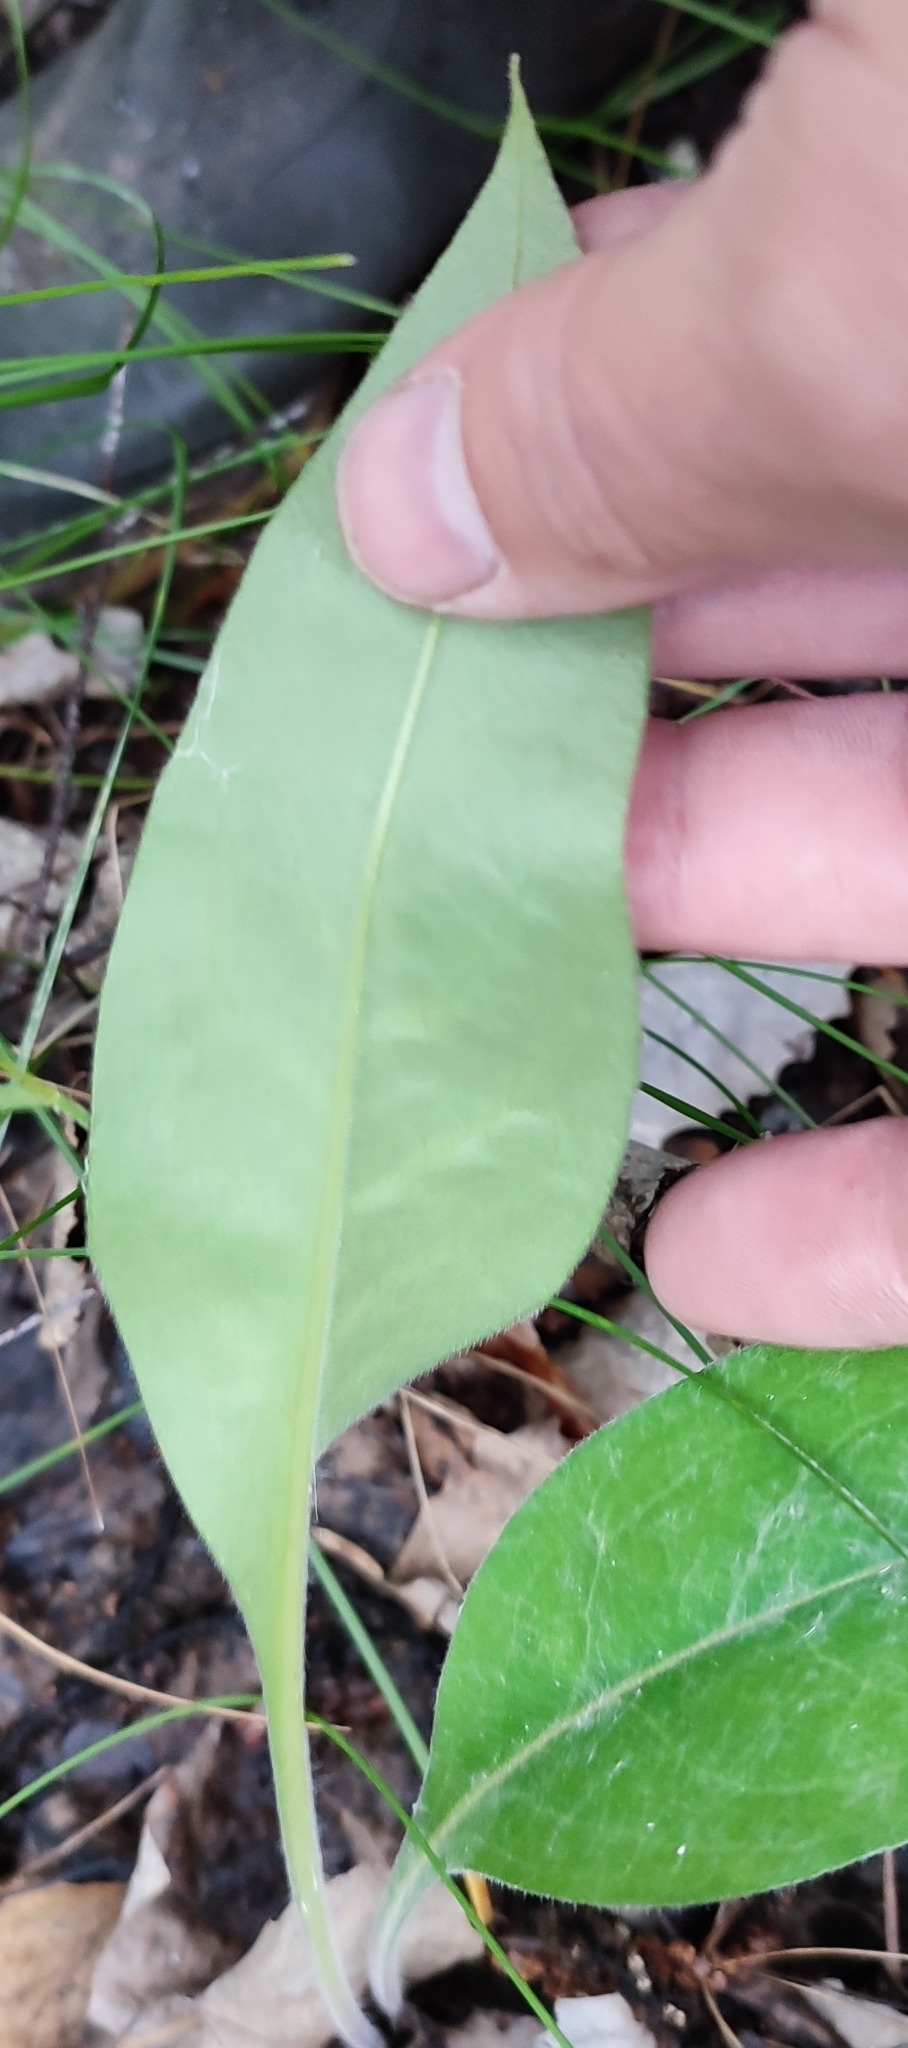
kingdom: Plantae
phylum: Tracheophyta
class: Magnoliopsida
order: Boraginales
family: Boraginaceae
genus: Pulmonaria
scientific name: Pulmonaria mollis
